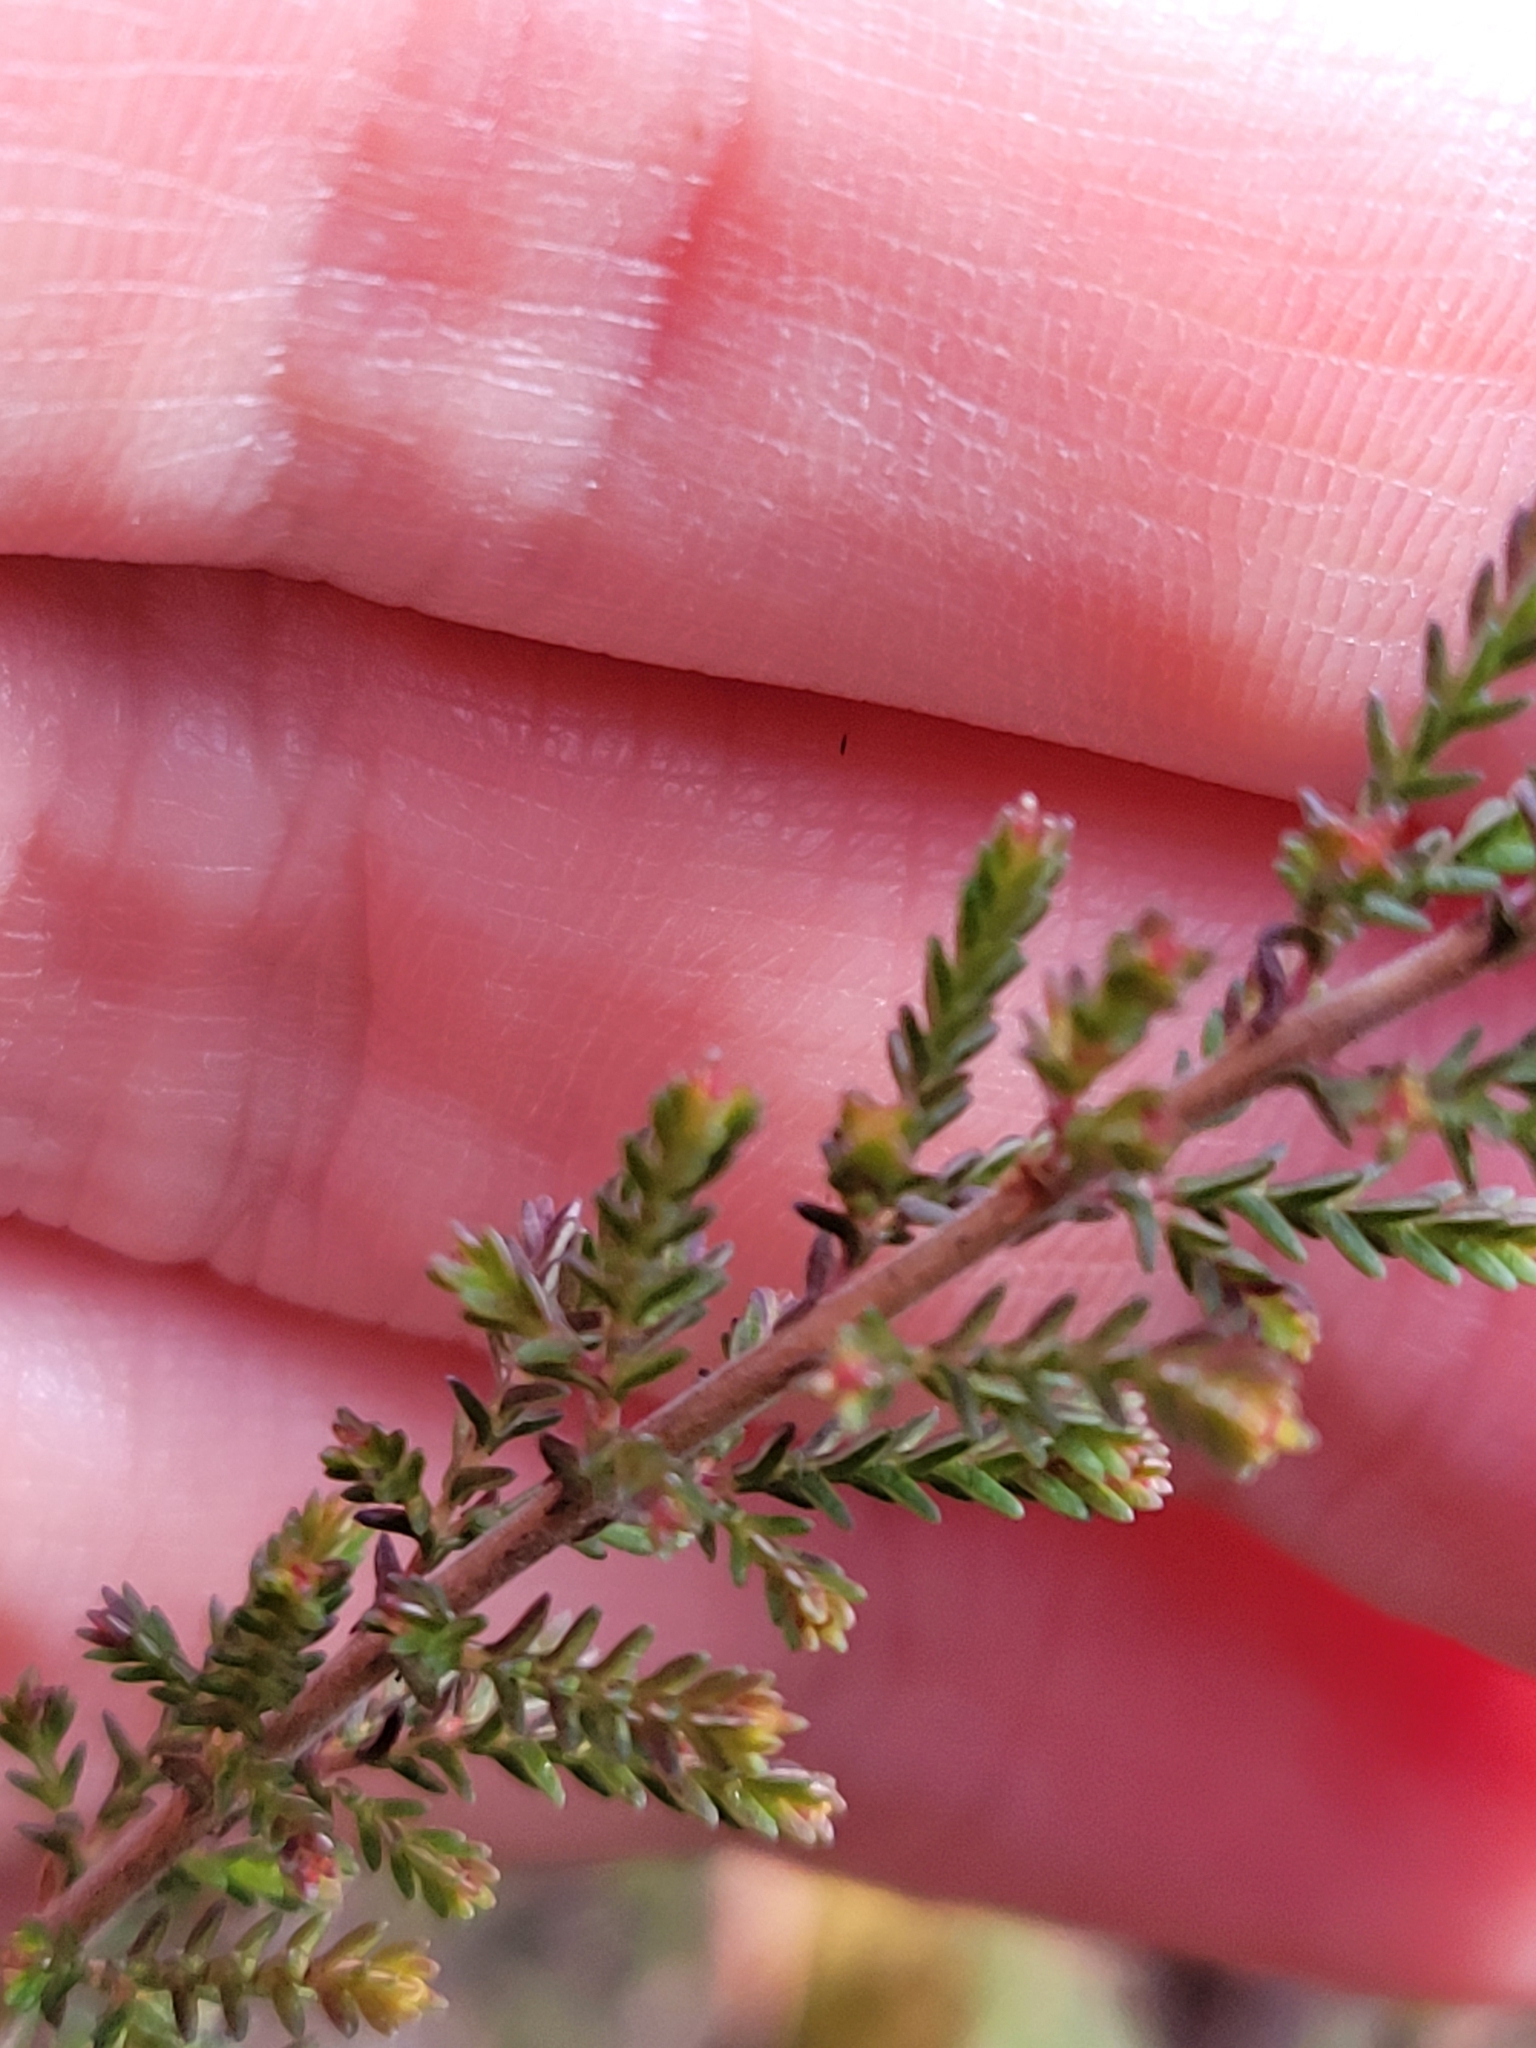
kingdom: Plantae
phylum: Tracheophyta
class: Magnoliopsida
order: Ericales
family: Ericaceae
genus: Calluna
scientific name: Calluna vulgaris
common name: Heather
